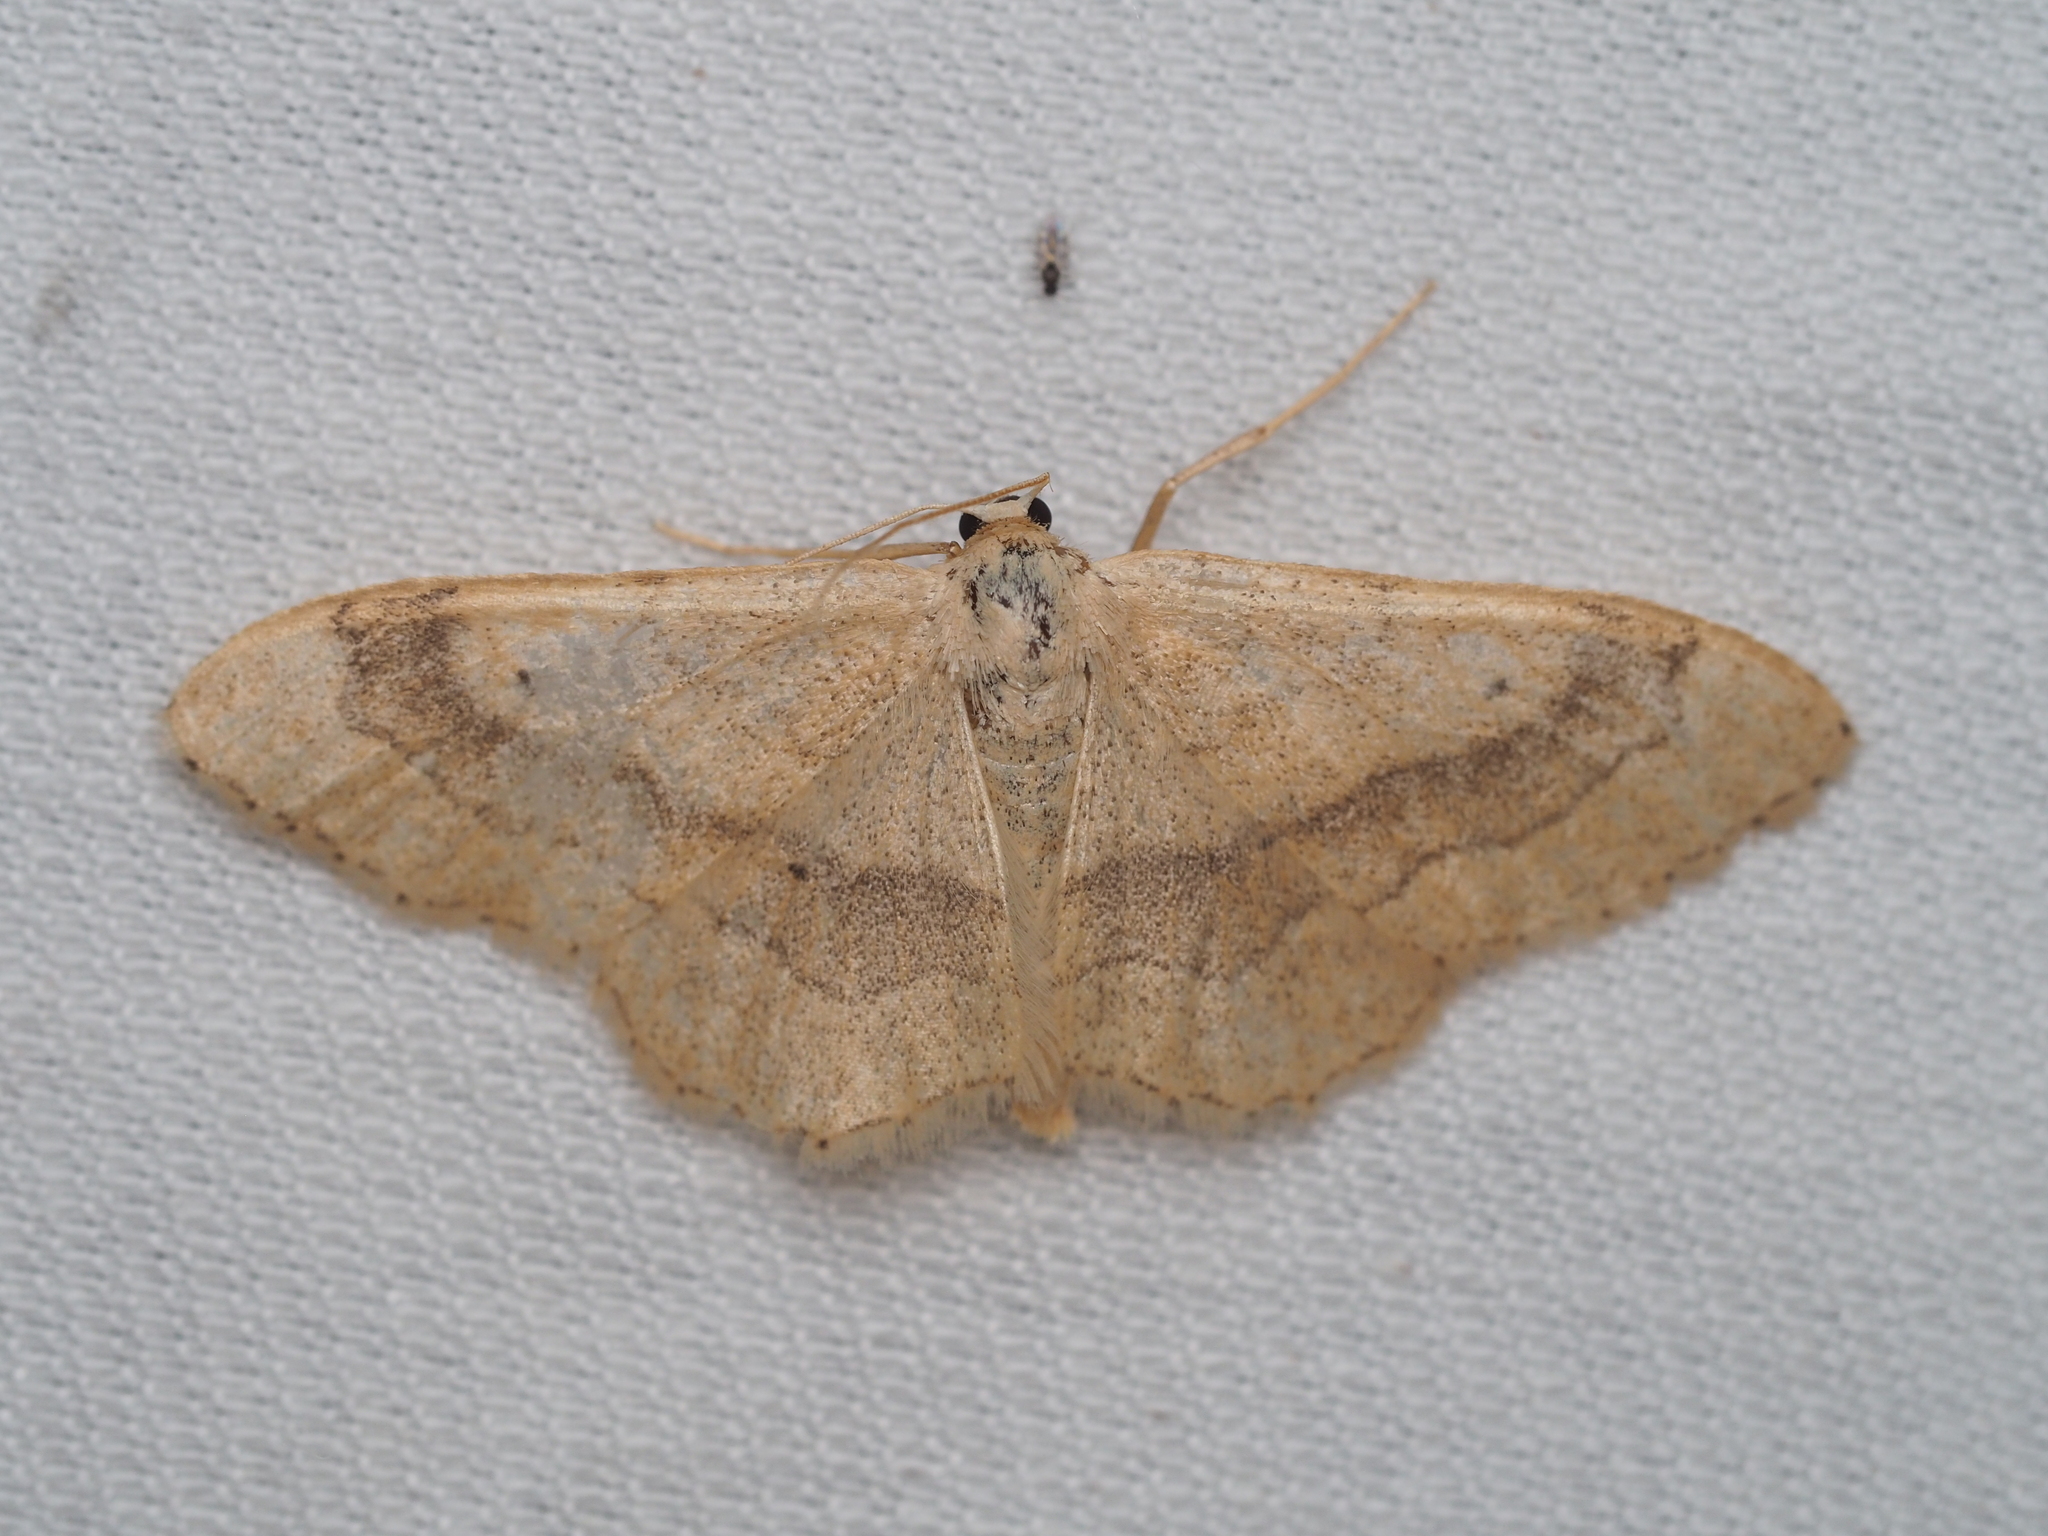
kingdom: Animalia
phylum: Arthropoda
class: Insecta
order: Lepidoptera
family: Geometridae
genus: Idaea
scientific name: Idaea aversata
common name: Riband wave
